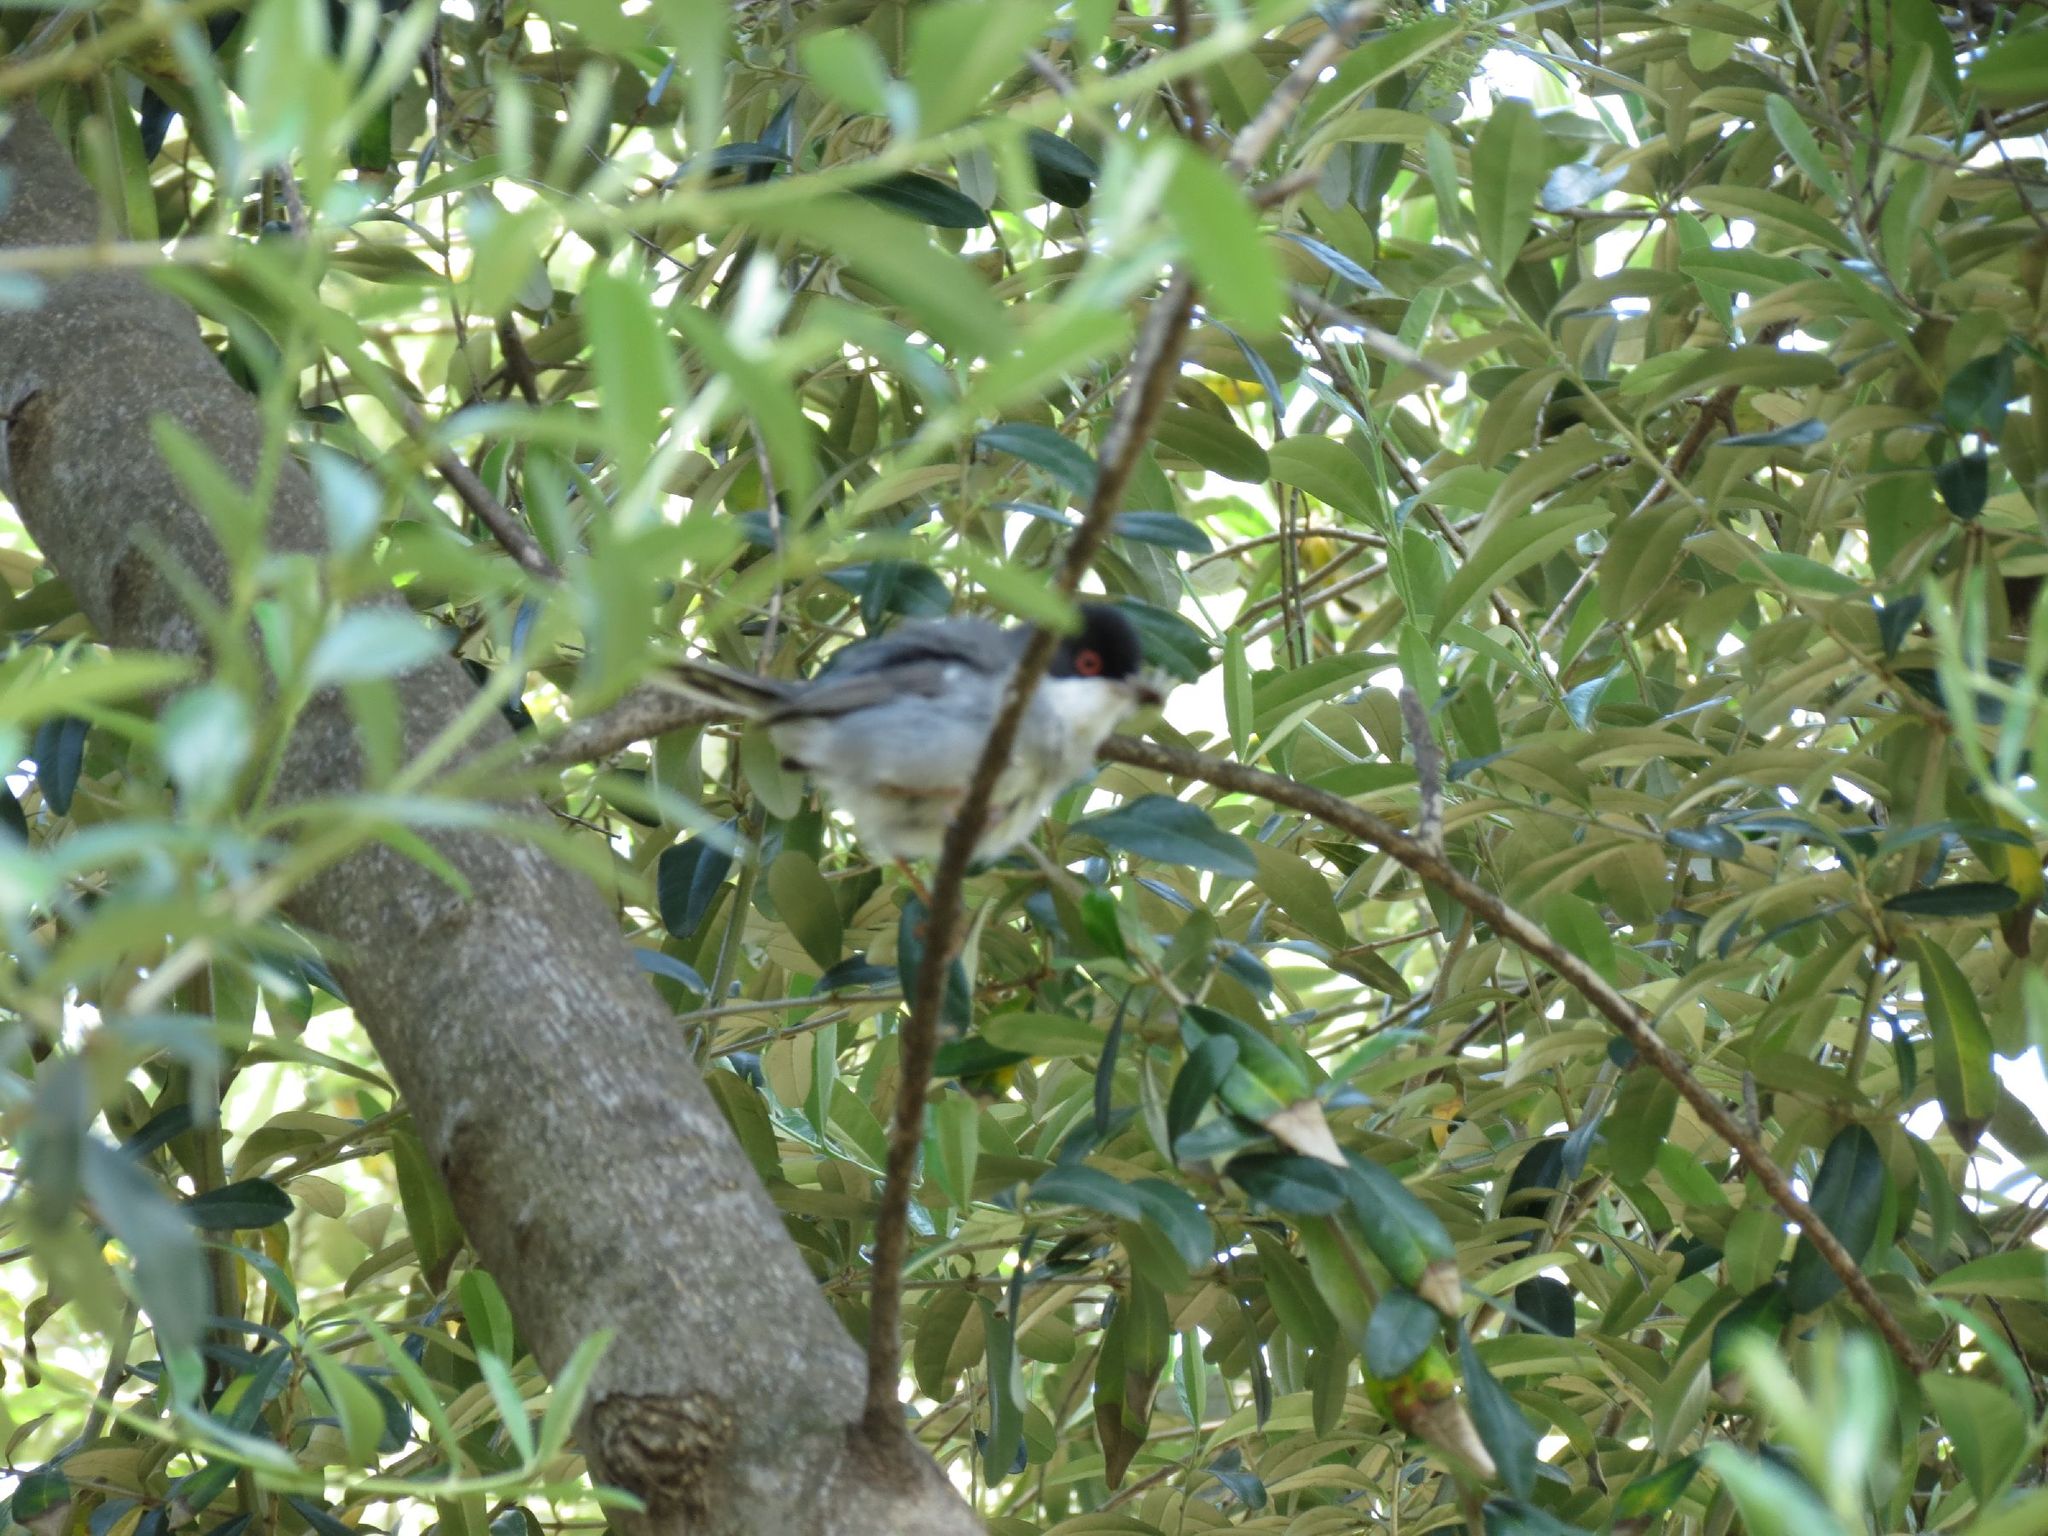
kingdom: Animalia
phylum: Chordata
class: Aves
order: Passeriformes
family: Sylviidae
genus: Curruca
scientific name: Curruca melanocephala
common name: Sardinian warbler
